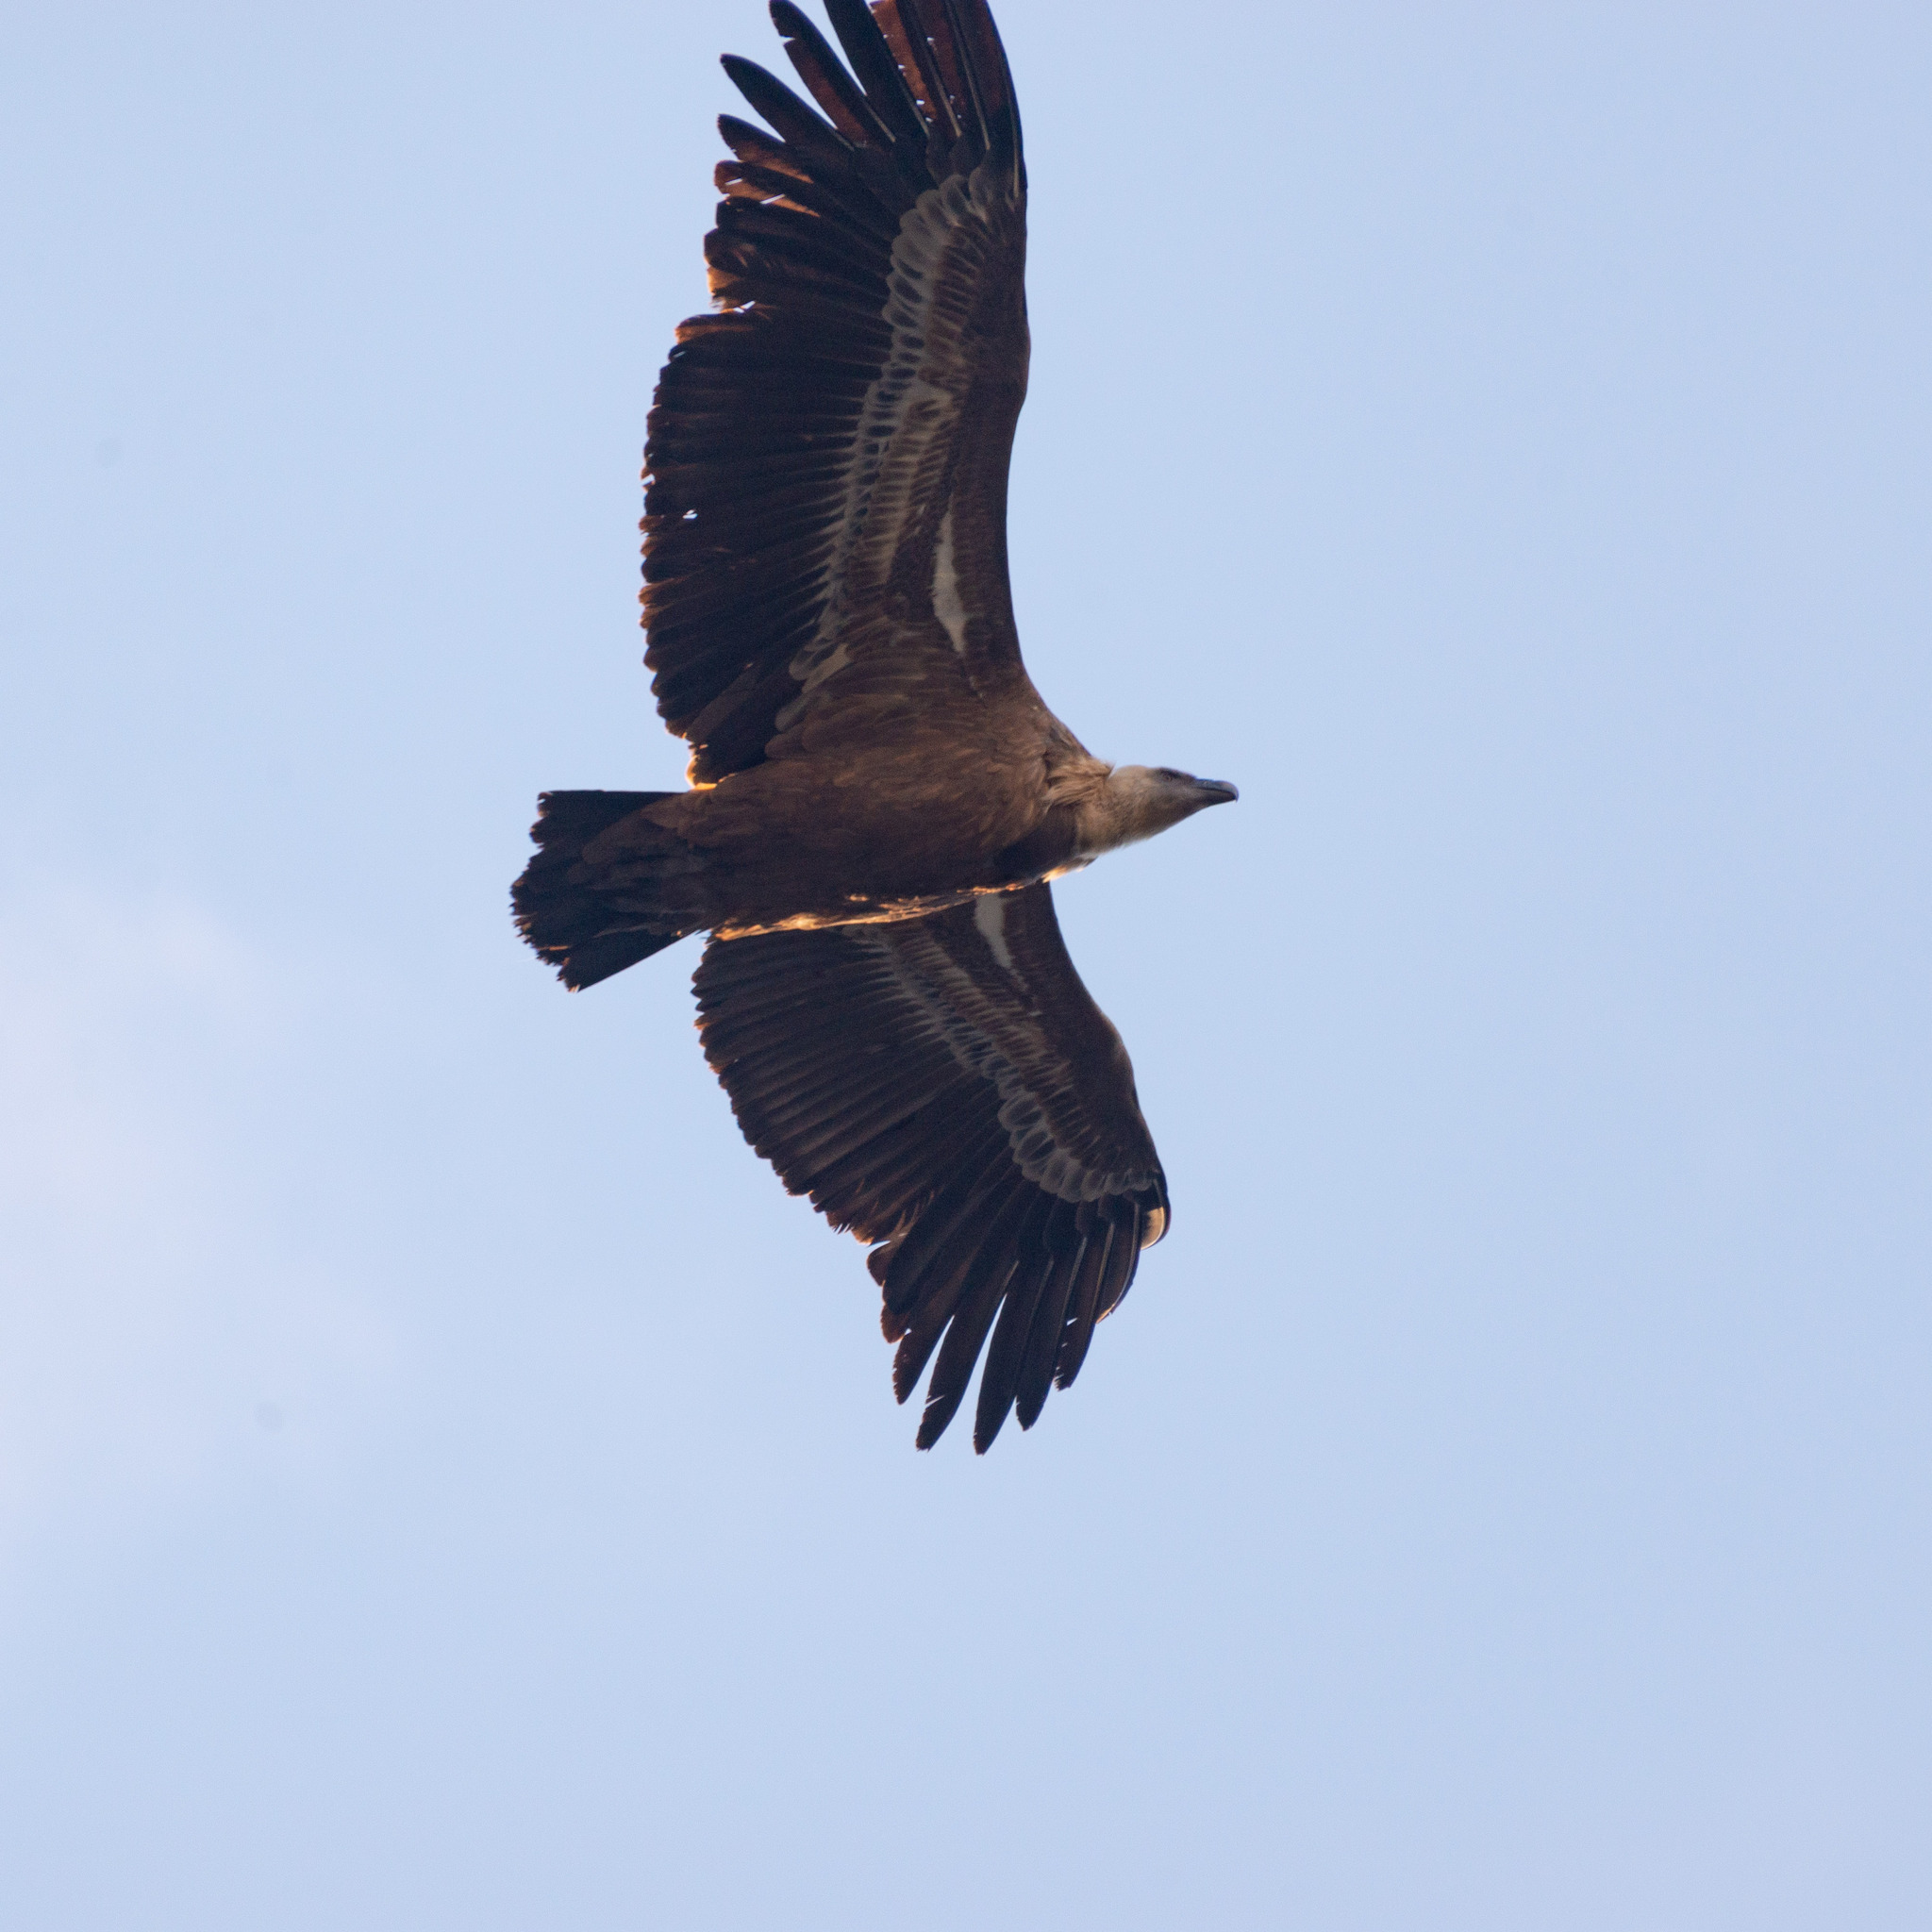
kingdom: Animalia
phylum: Chordata
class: Aves
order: Accipitriformes
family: Accipitridae
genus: Gyps
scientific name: Gyps fulvus
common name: Griffon vulture
